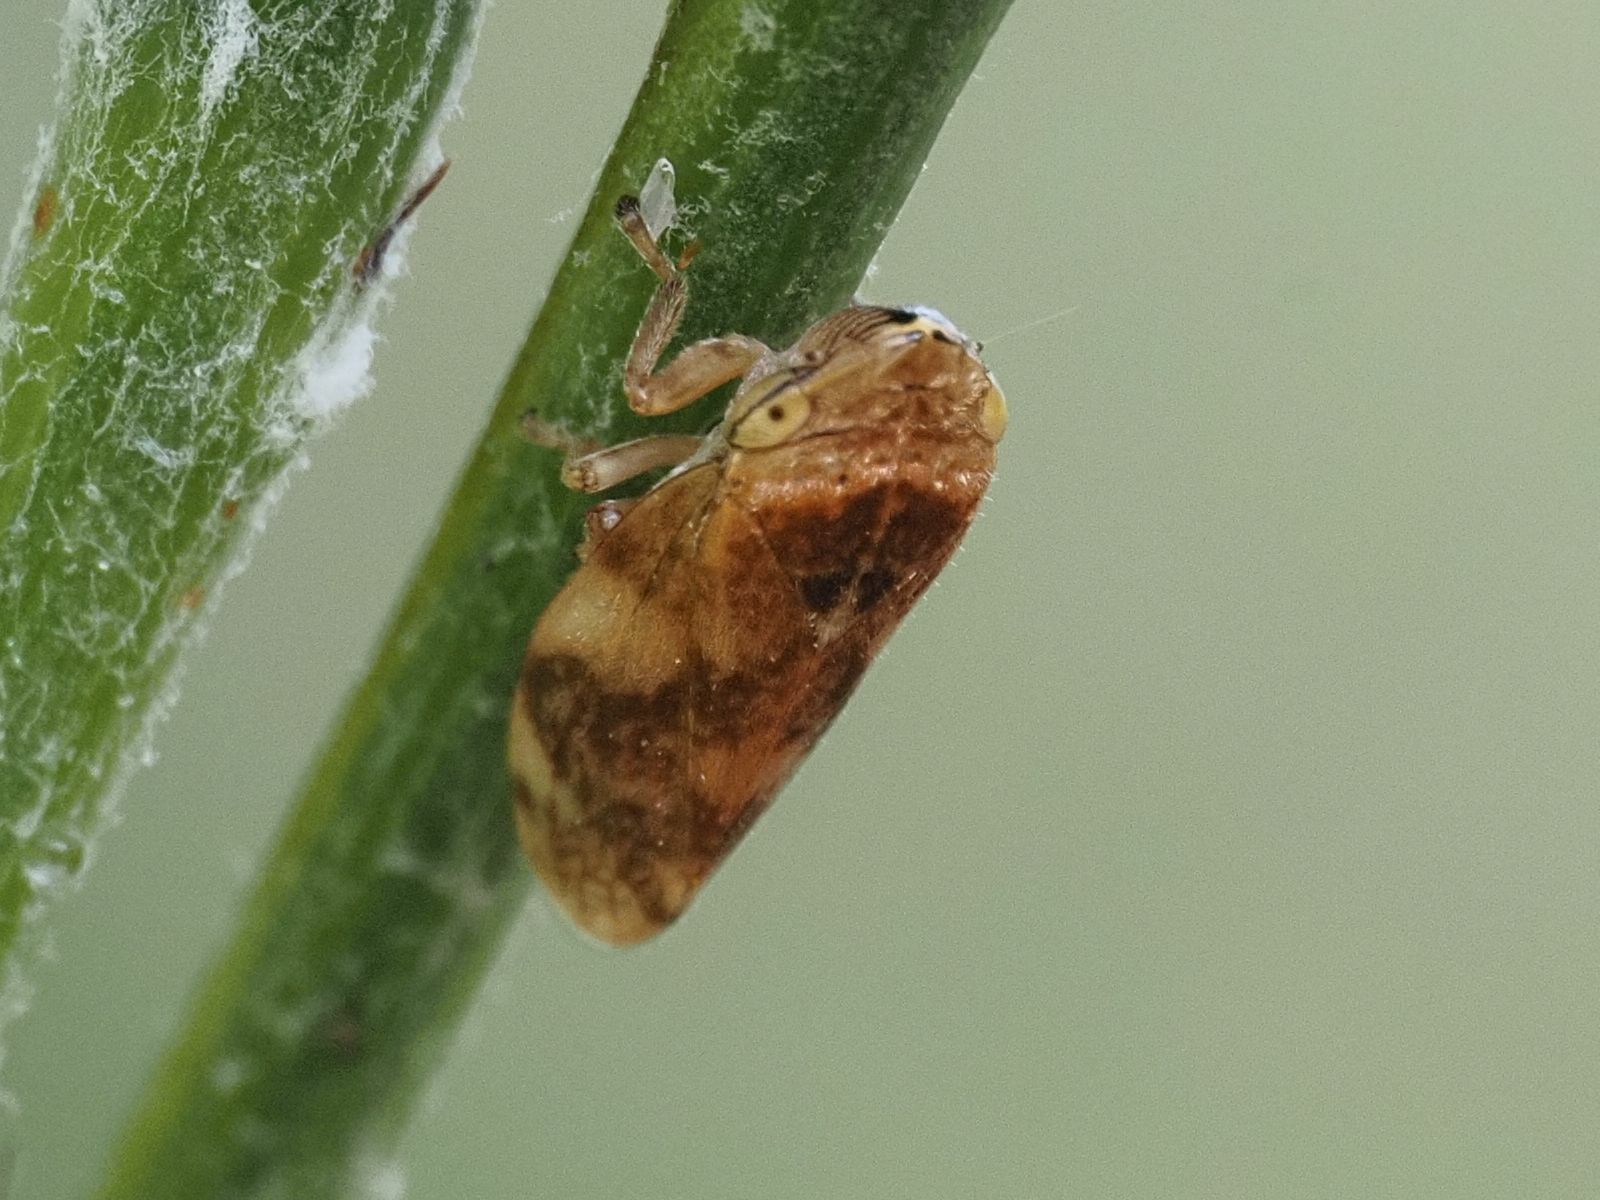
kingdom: Animalia
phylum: Arthropoda
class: Insecta
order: Hemiptera
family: Aphrophoridae
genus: Philaenus
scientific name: Philaenus spumarius
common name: Meadow spittlebug
